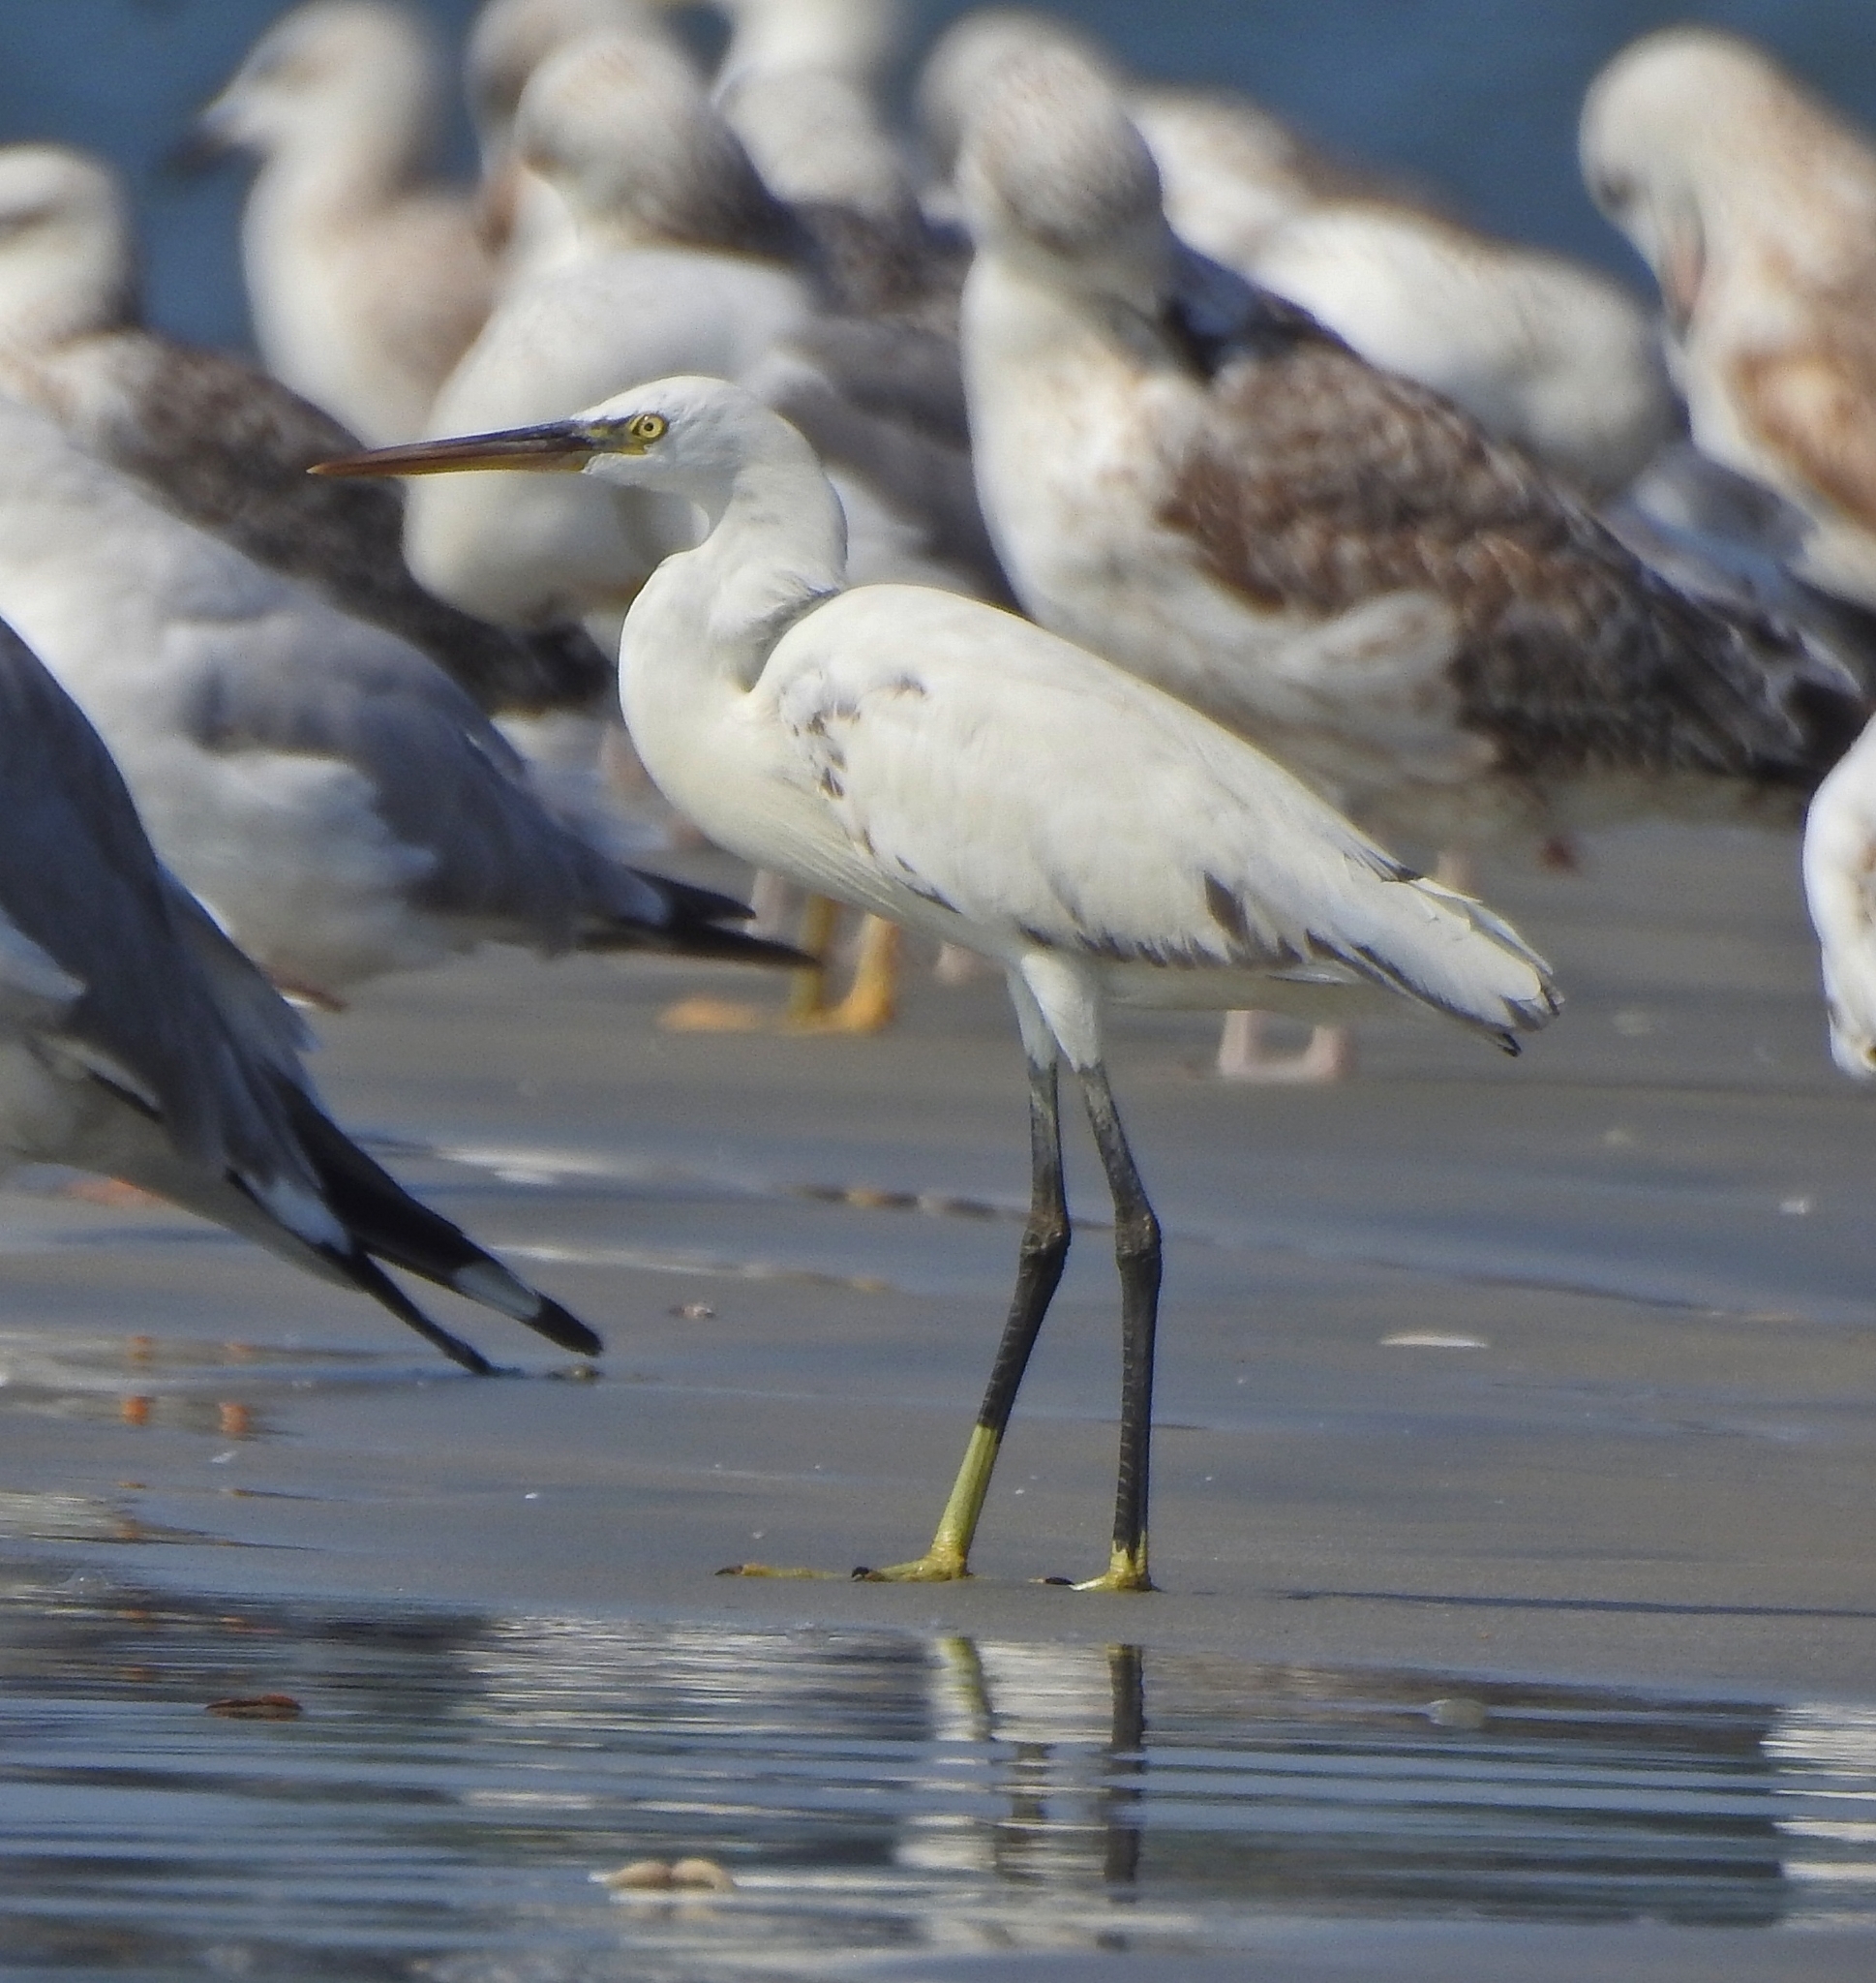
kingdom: Animalia
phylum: Chordata
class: Aves
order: Pelecaniformes
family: Ardeidae
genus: Egretta
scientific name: Egretta gularis
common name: Western reef-heron
